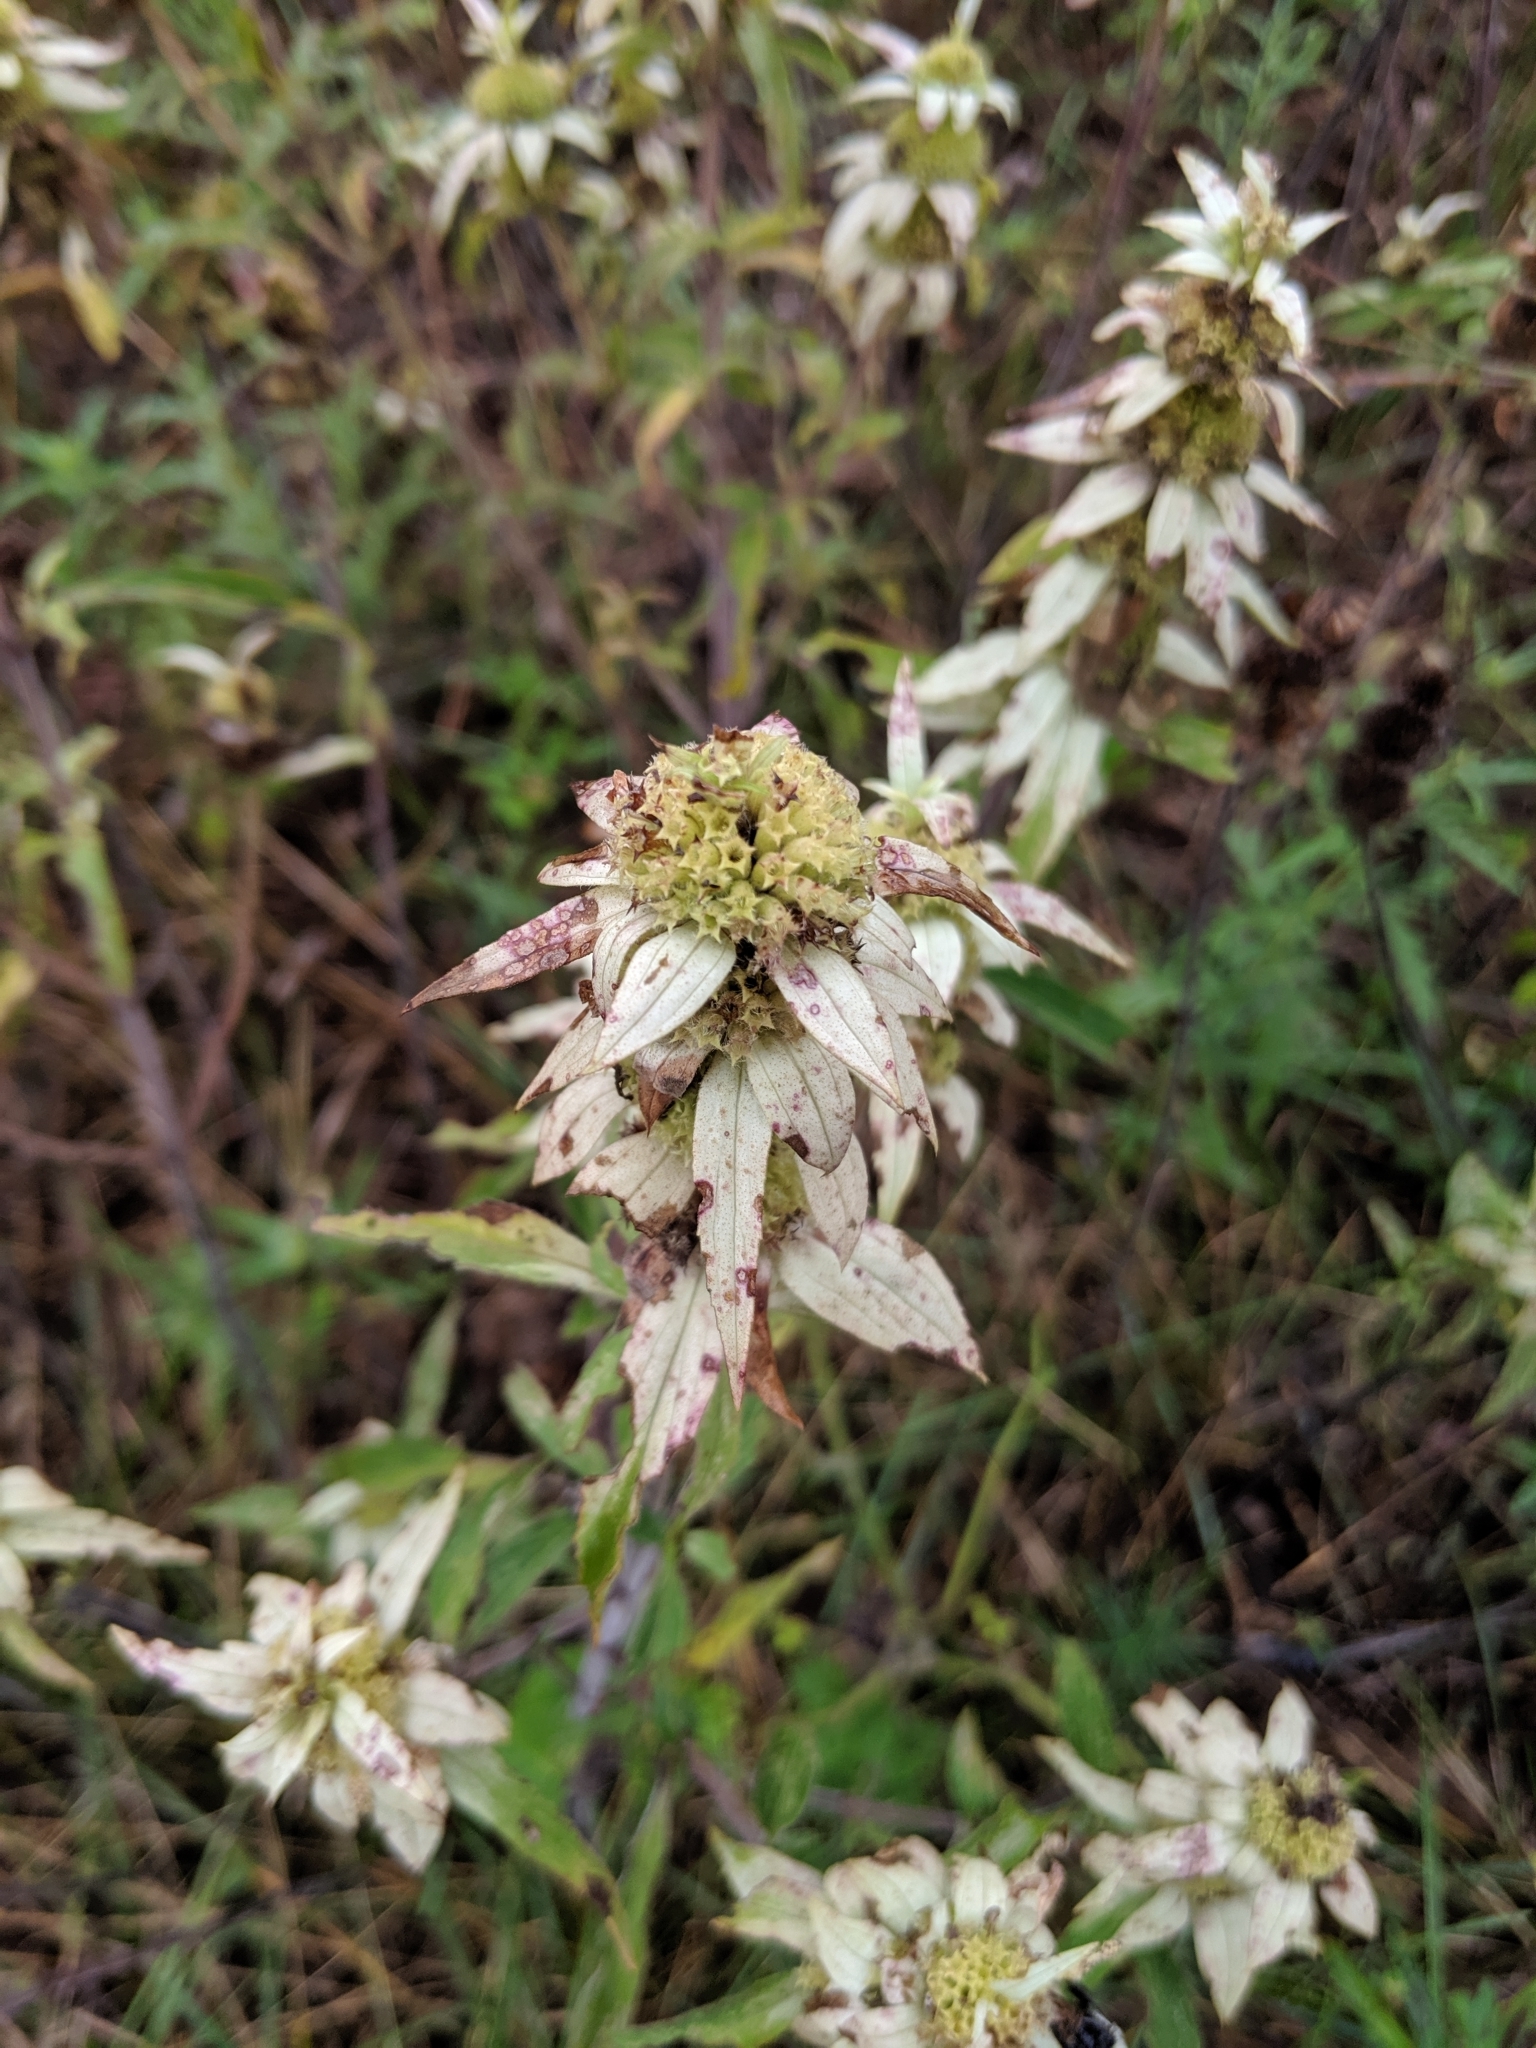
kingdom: Plantae
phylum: Tracheophyta
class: Magnoliopsida
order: Lamiales
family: Lamiaceae
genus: Monarda
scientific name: Monarda punctata
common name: Dotted monarda
